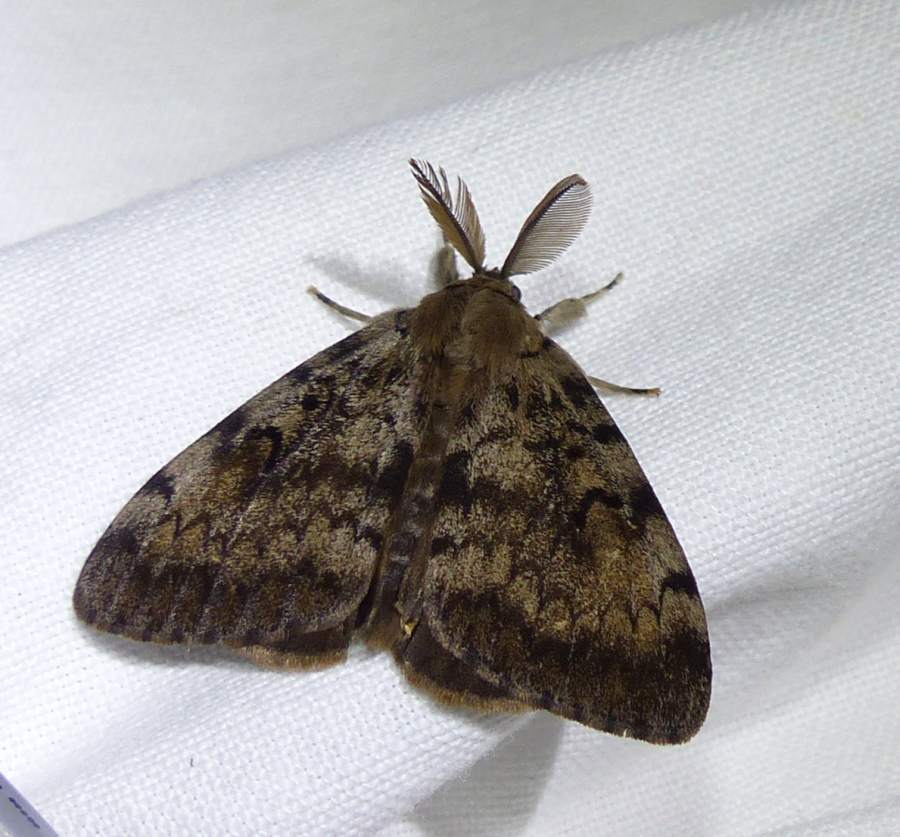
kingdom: Animalia
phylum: Arthropoda
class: Insecta
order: Lepidoptera
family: Erebidae
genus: Lymantria
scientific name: Lymantria dispar
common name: Gypsy moth
